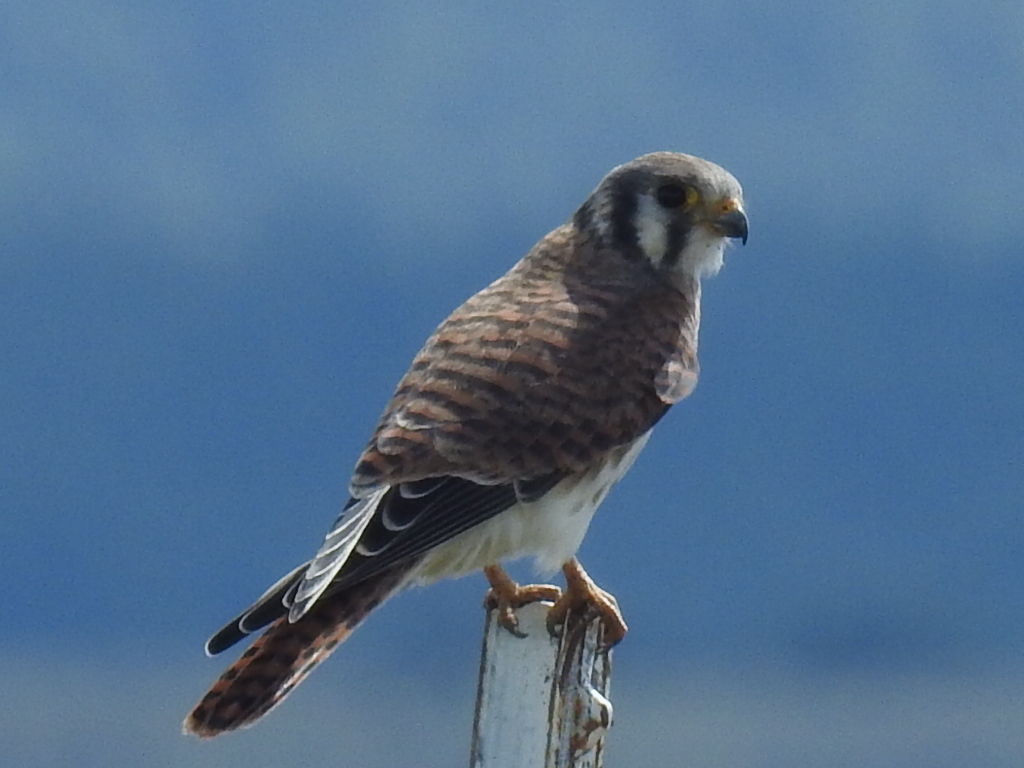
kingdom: Animalia
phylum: Chordata
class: Aves
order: Falconiformes
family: Falconidae
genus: Falco
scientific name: Falco sparverius
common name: American kestrel
